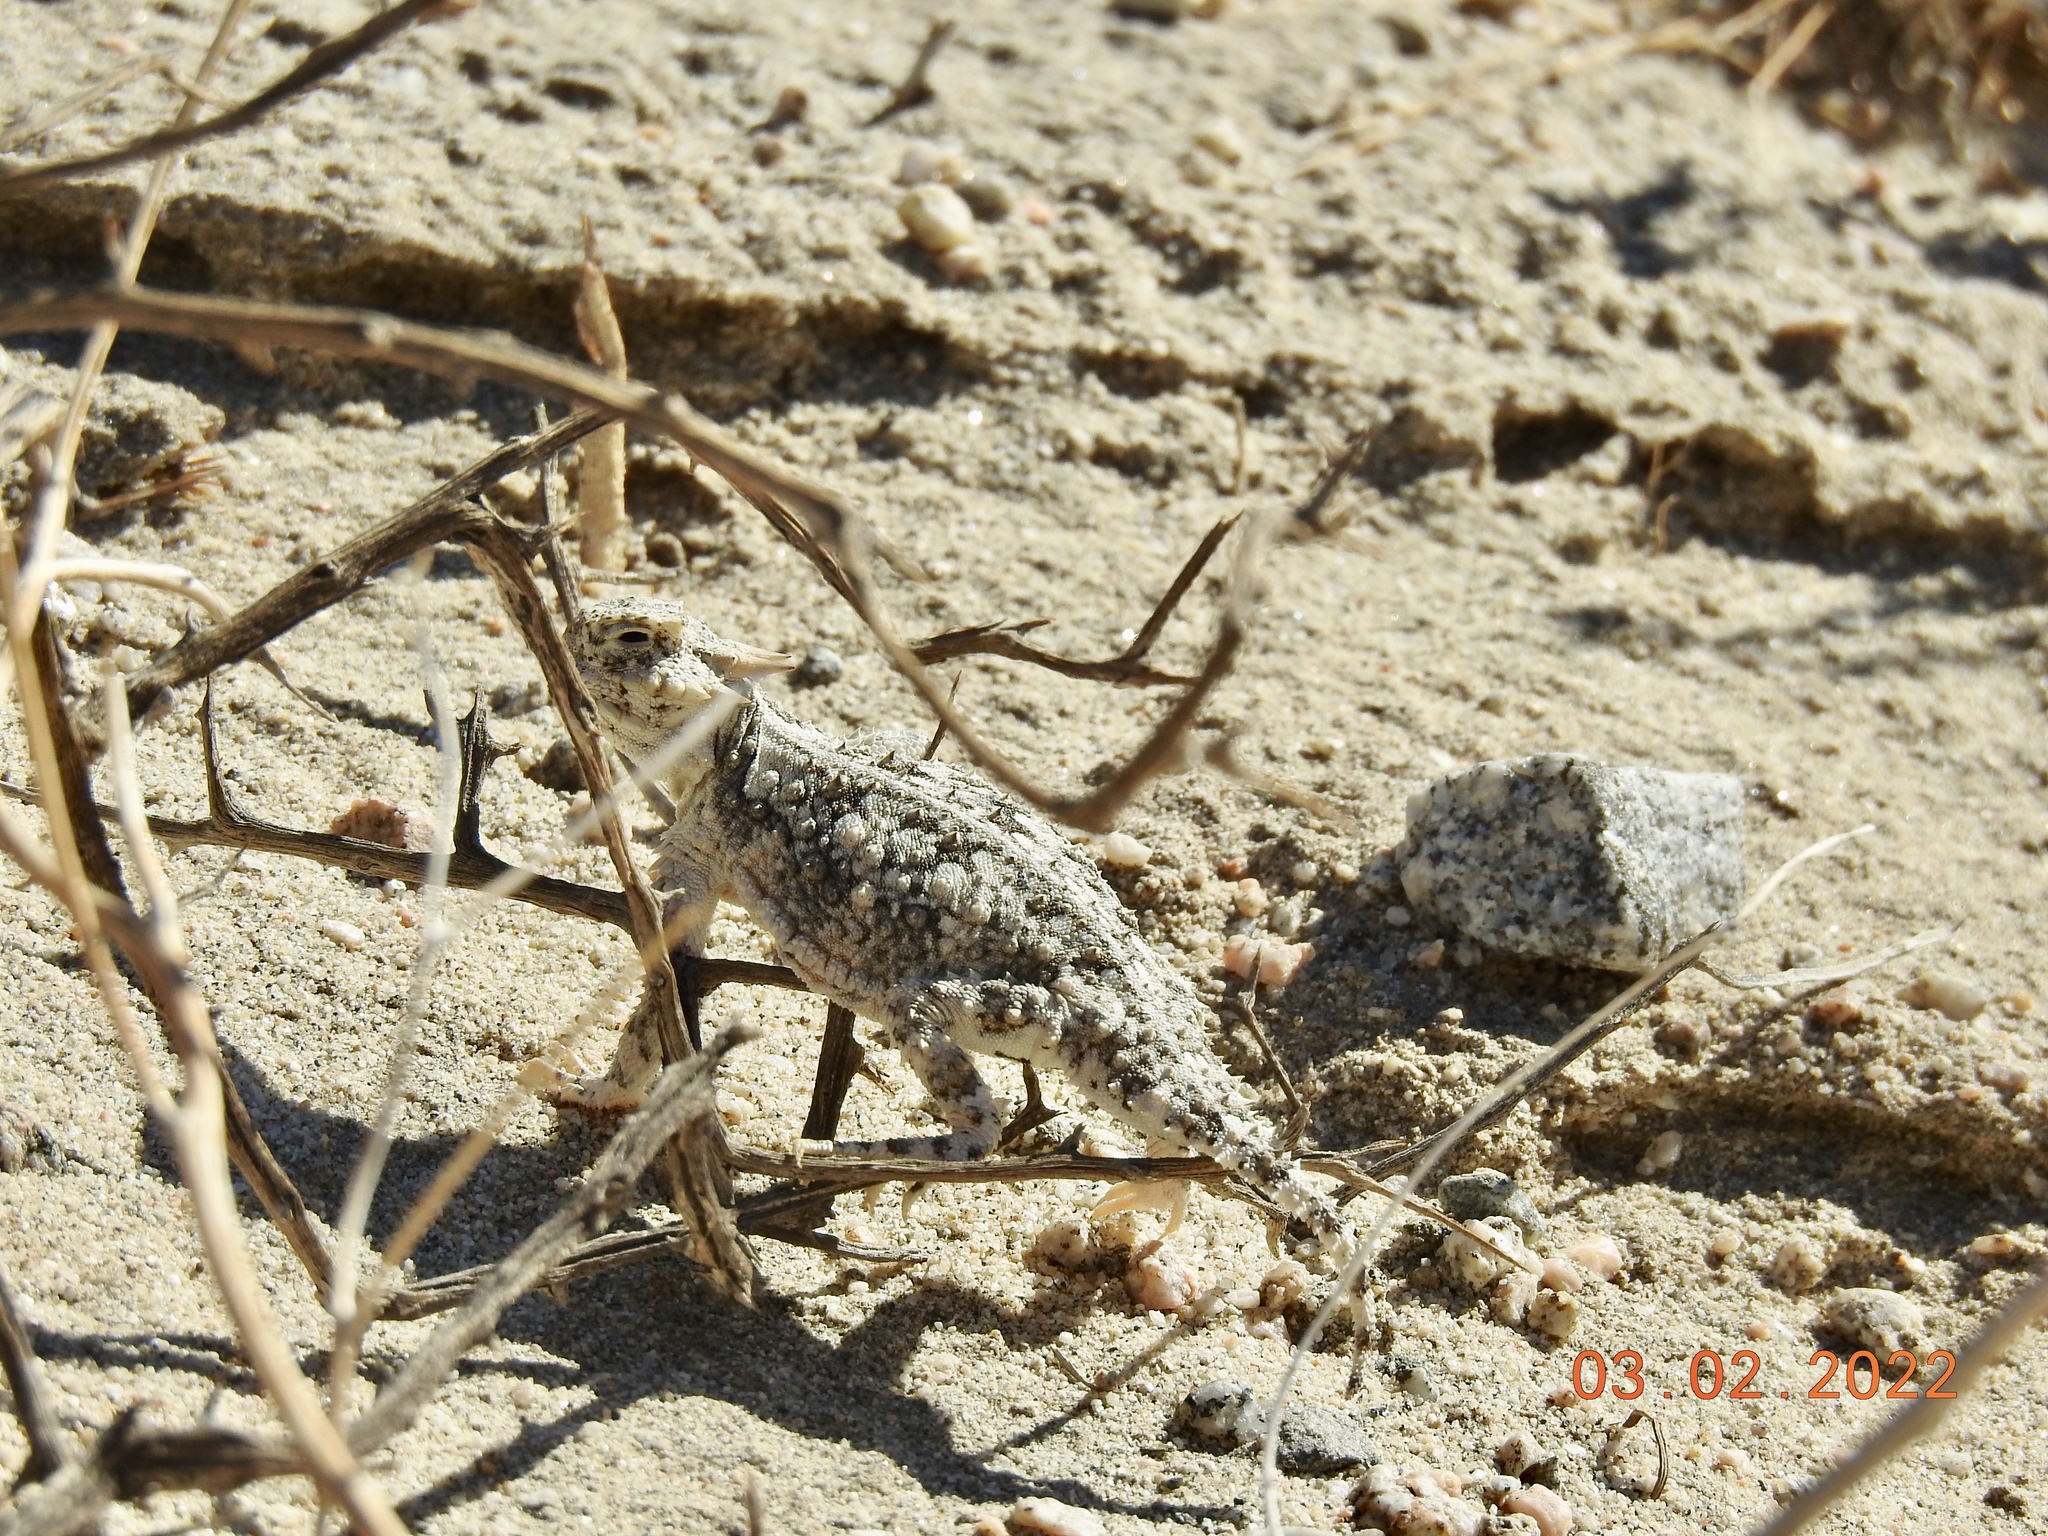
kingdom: Animalia
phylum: Chordata
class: Squamata
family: Phrynosomatidae
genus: Phrynosoma
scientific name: Phrynosoma platyrhinos
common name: Desert horned lizard
